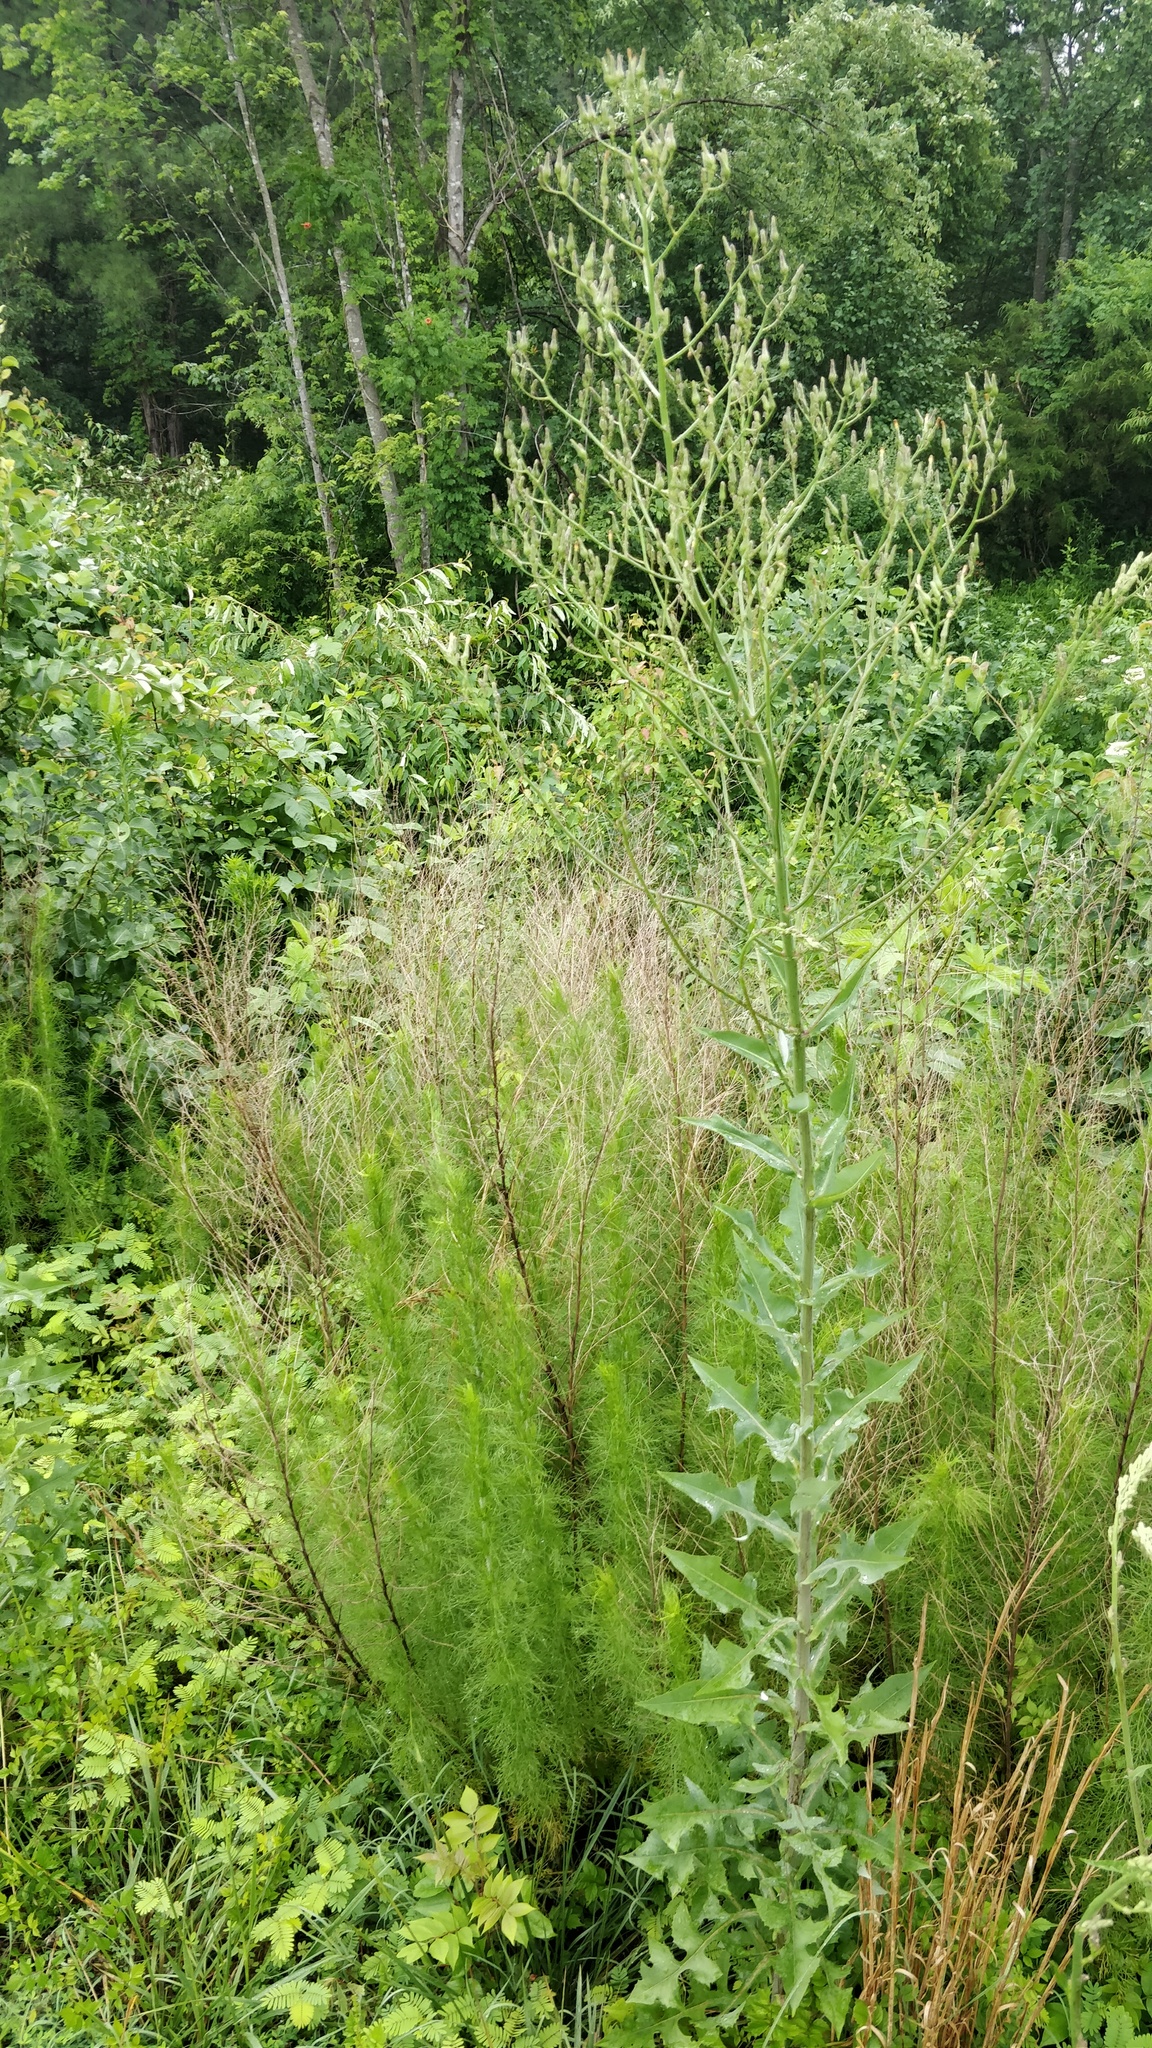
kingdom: Plantae
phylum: Tracheophyta
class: Magnoliopsida
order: Asterales
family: Asteraceae
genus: Lactuca
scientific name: Lactuca canadensis
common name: Canada lettuce
